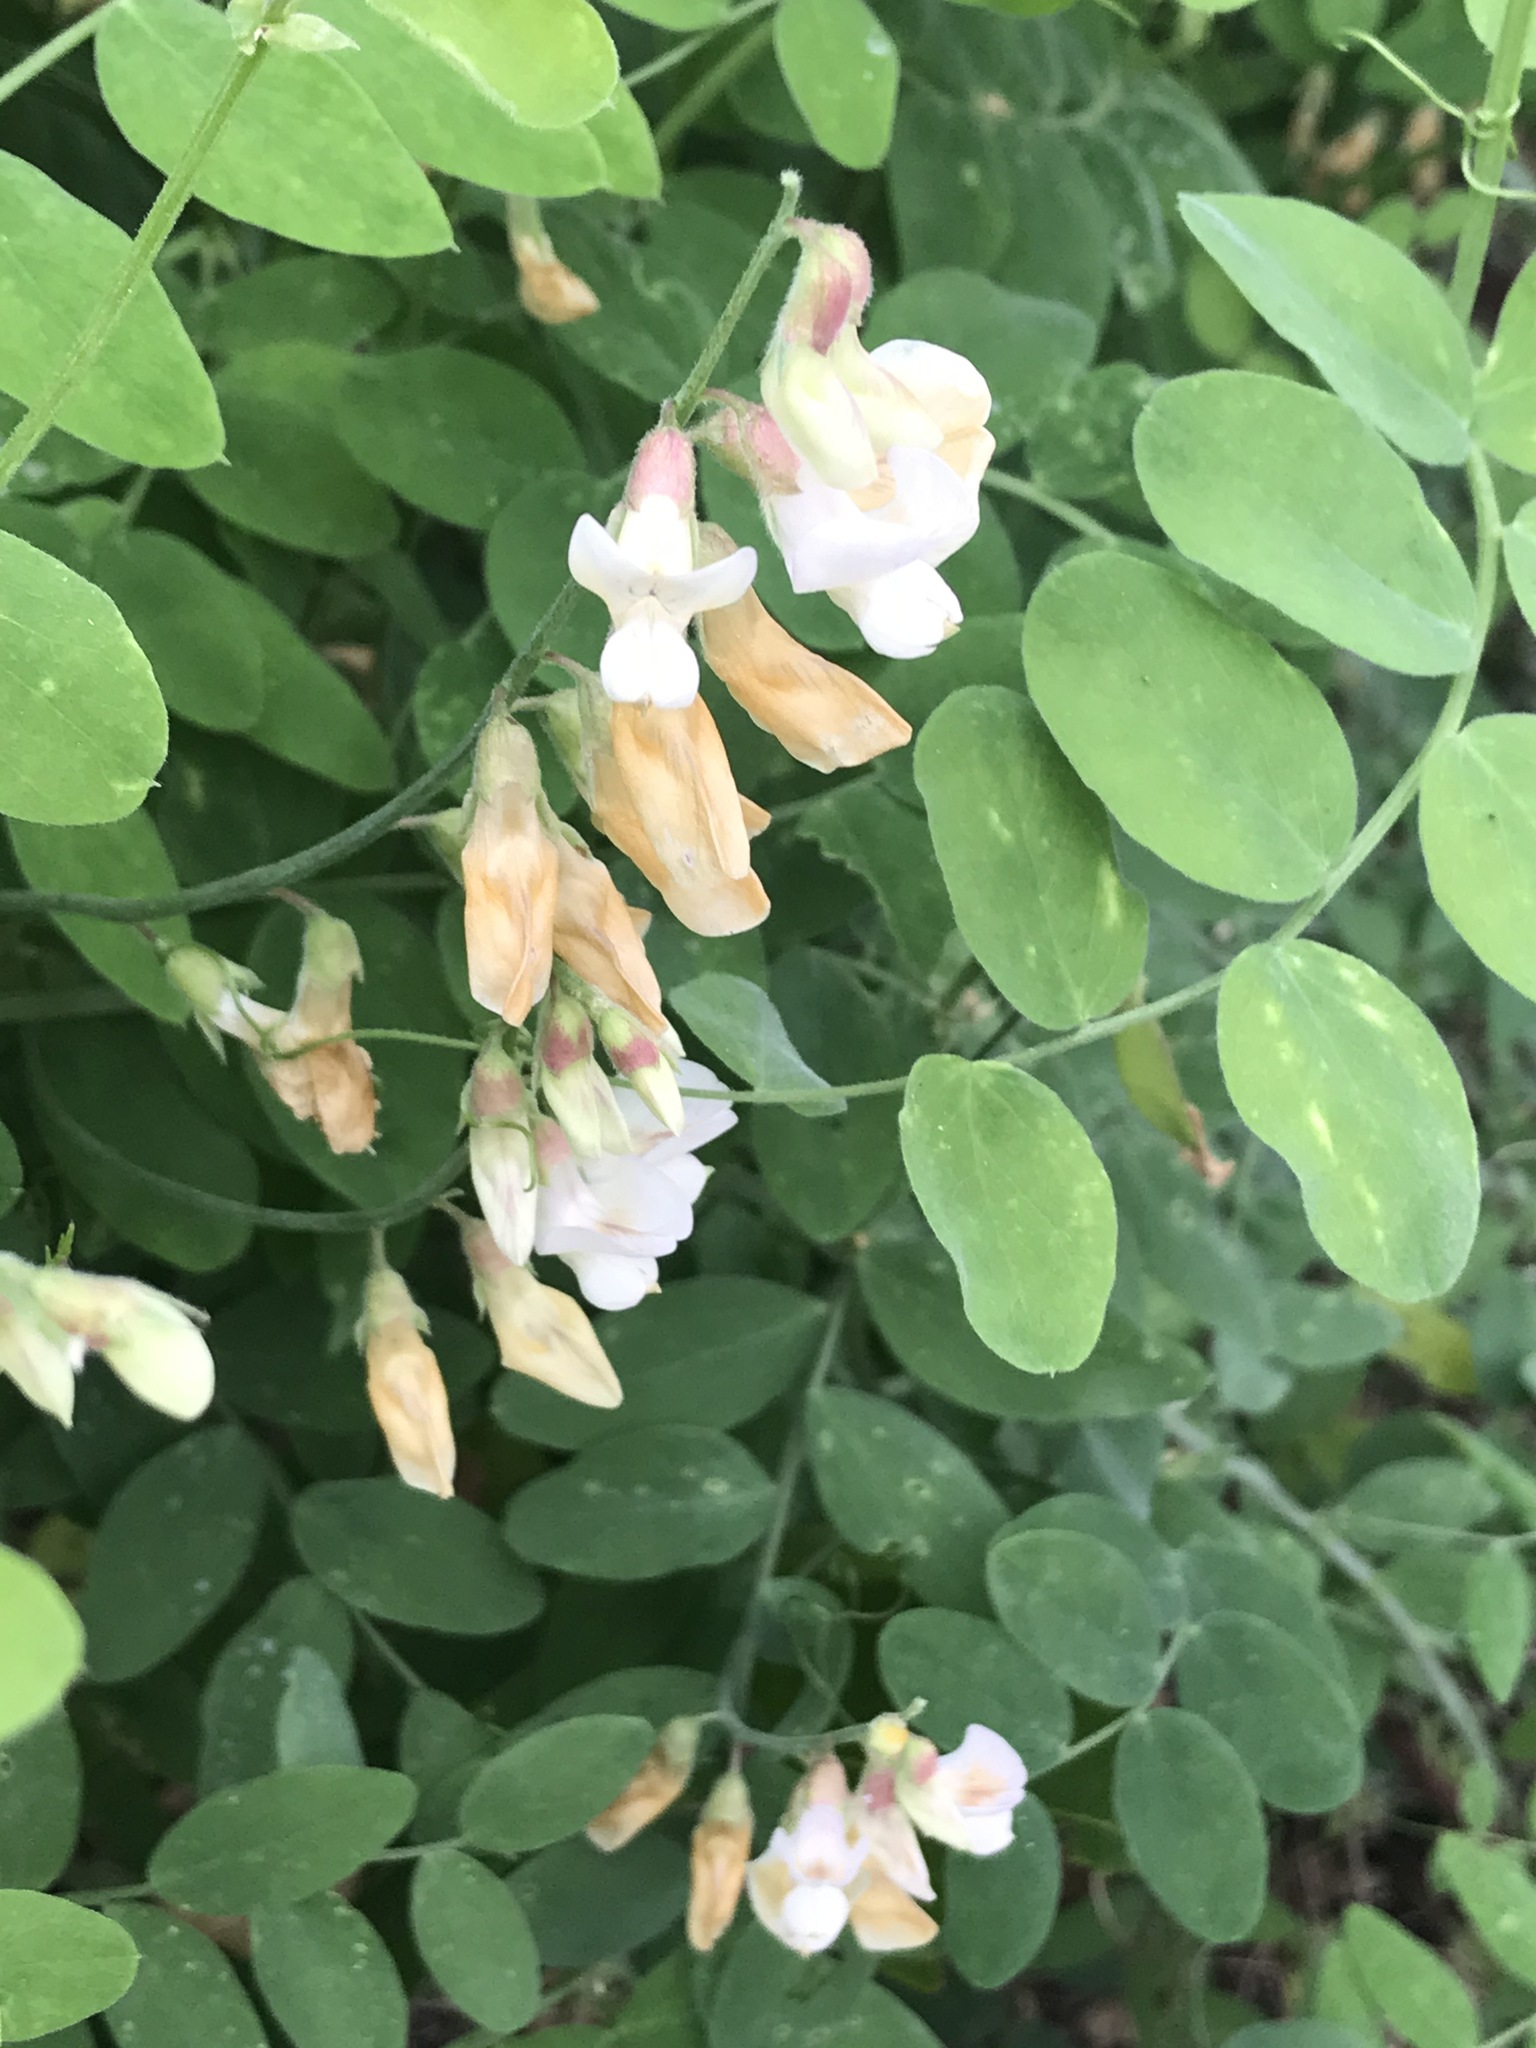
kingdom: Plantae
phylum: Tracheophyta
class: Magnoliopsida
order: Fabales
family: Fabaceae
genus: Lathyrus
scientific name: Lathyrus vestitus
